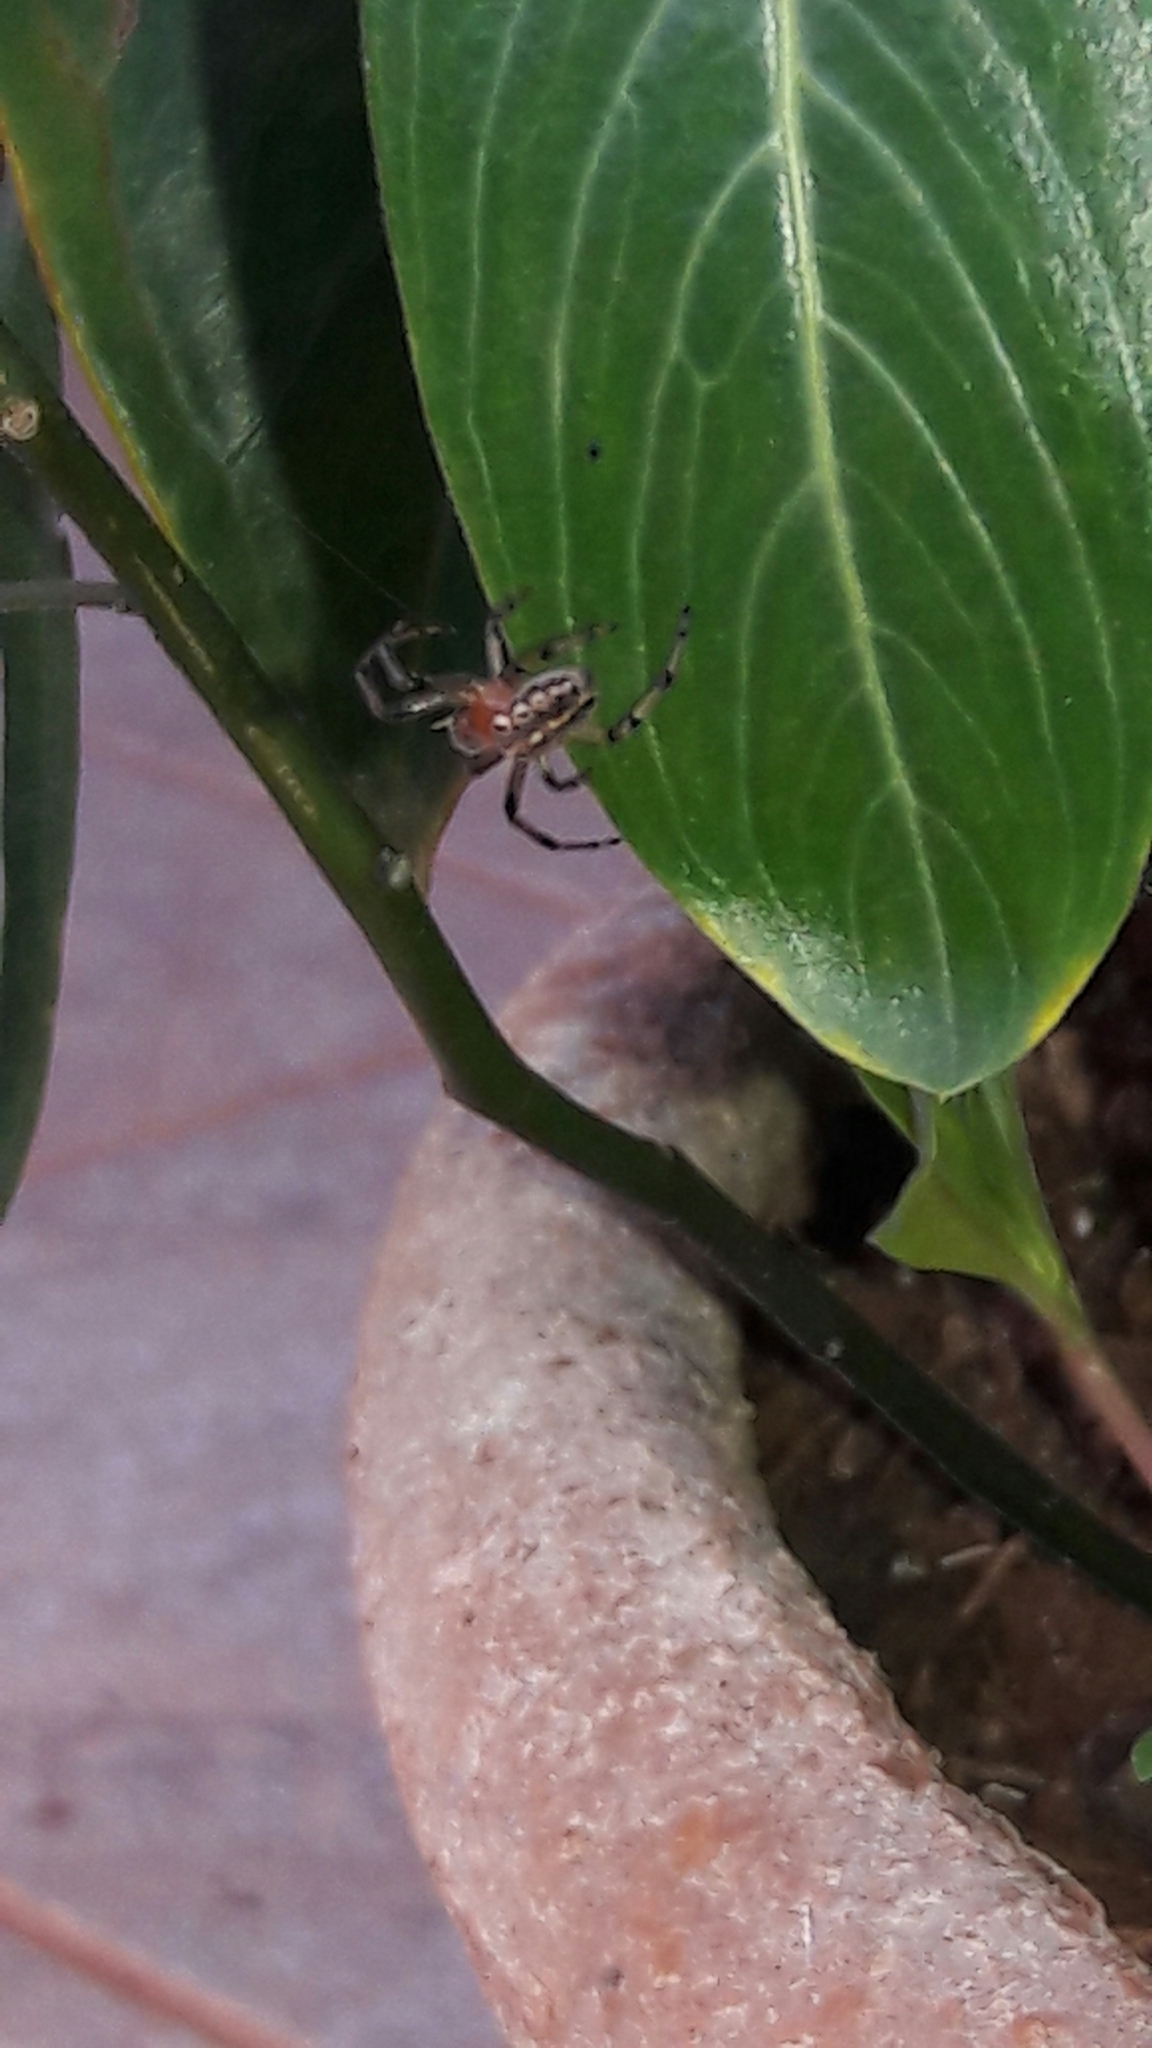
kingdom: Animalia
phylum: Arthropoda
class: Arachnida
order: Araneae
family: Araneidae
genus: Alpaida
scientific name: Alpaida veniliae
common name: Orb weavers
